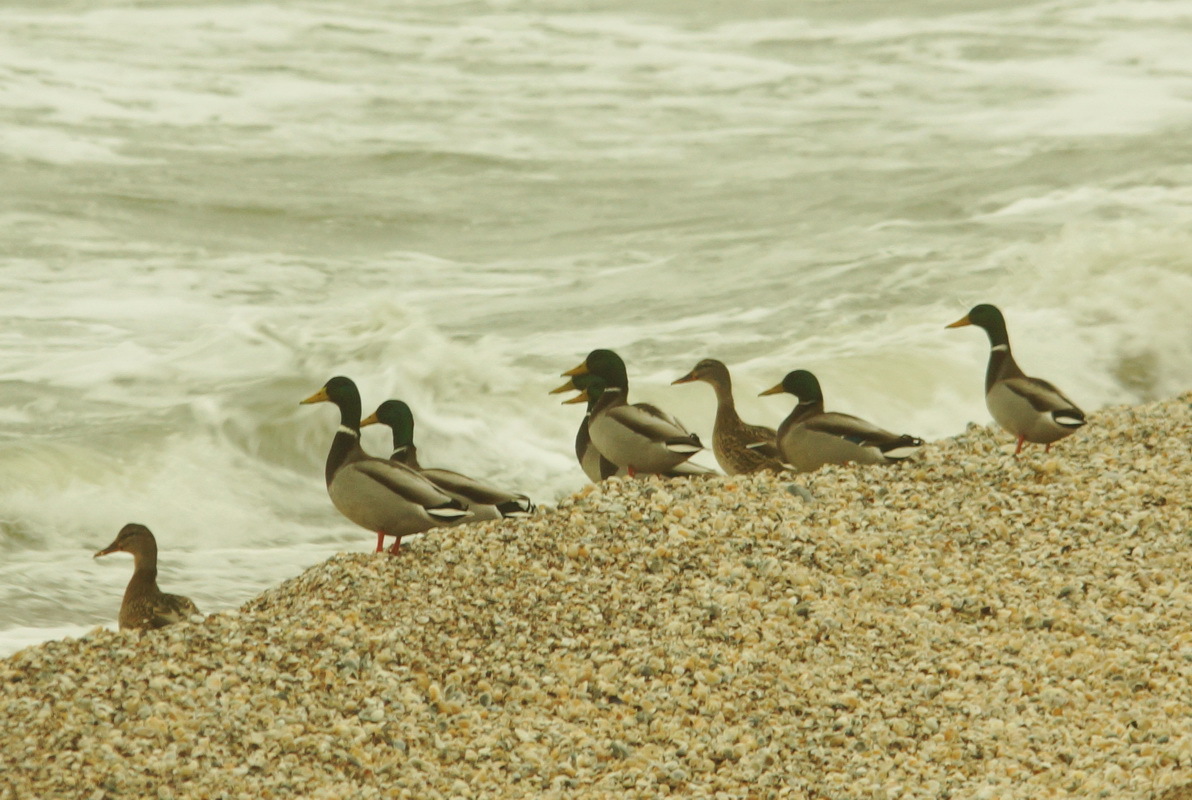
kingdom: Animalia
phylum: Chordata
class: Aves
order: Anseriformes
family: Anatidae
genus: Anas
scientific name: Anas platyrhynchos
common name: Mallard
